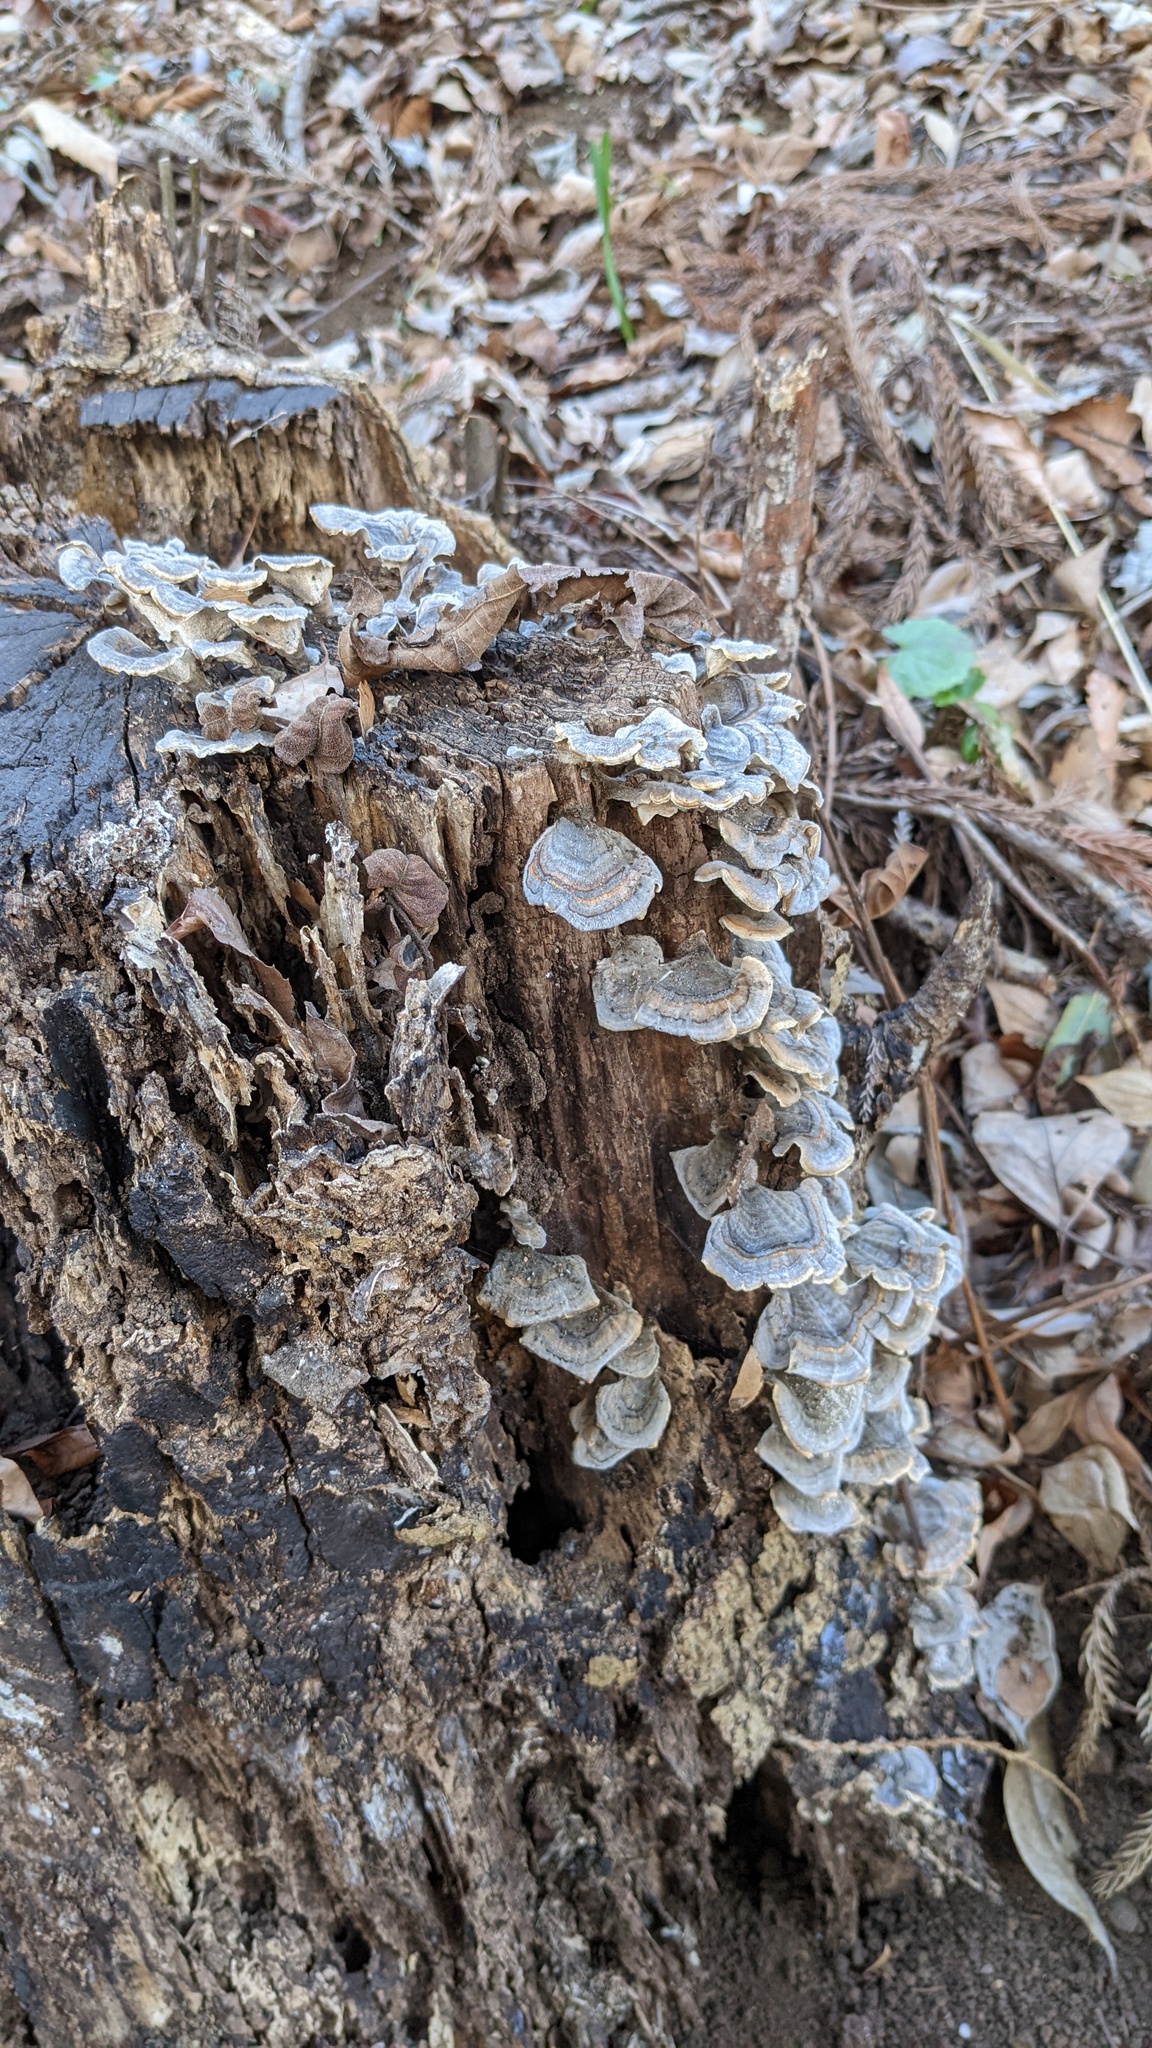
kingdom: Fungi
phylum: Basidiomycota
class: Agaricomycetes
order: Polyporales
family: Polyporaceae
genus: Trametes
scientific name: Trametes versicolor
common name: Turkeytail
